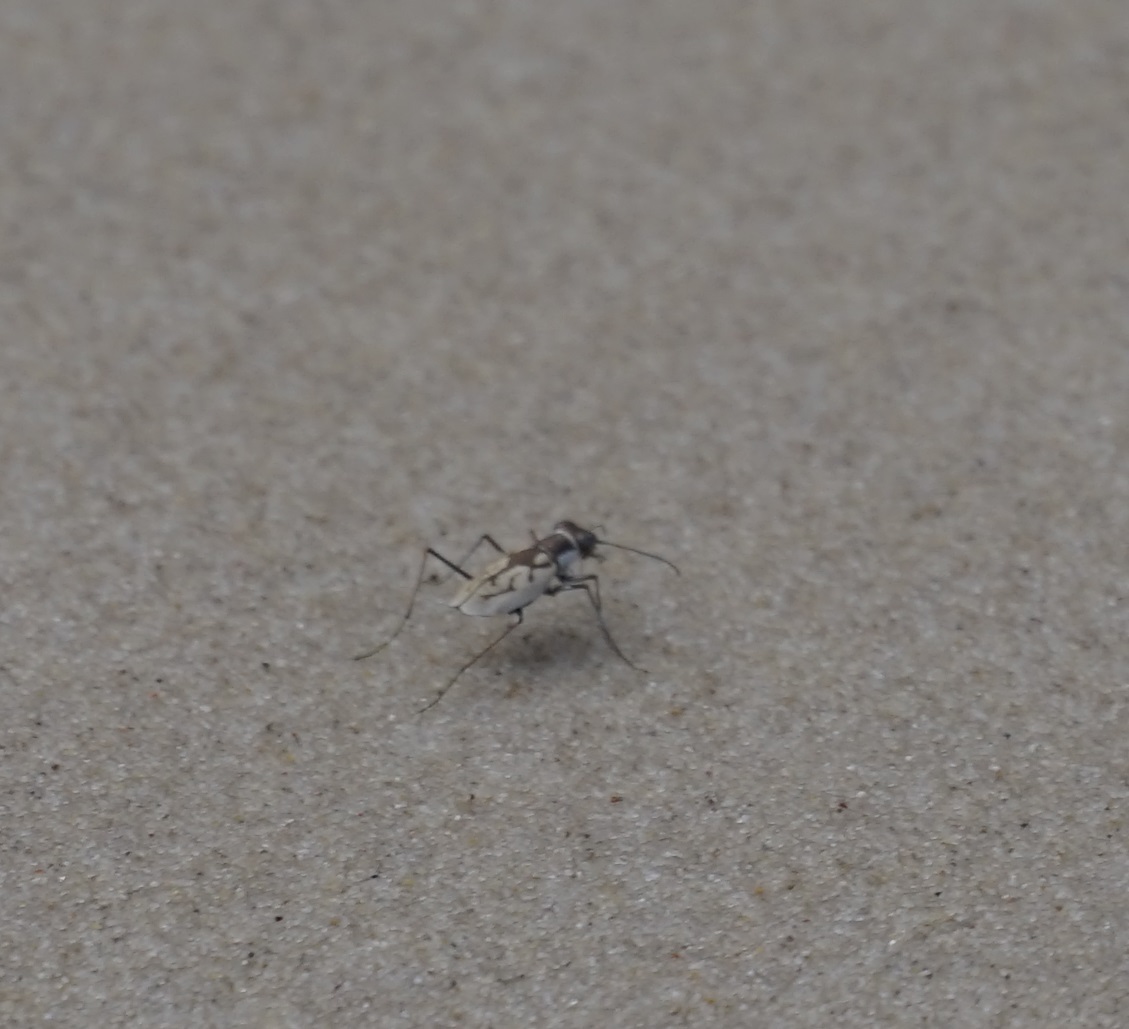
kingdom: Animalia
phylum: Arthropoda
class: Insecta
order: Coleoptera
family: Carabidae
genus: Hypaetha
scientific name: Hypaetha upsilon
